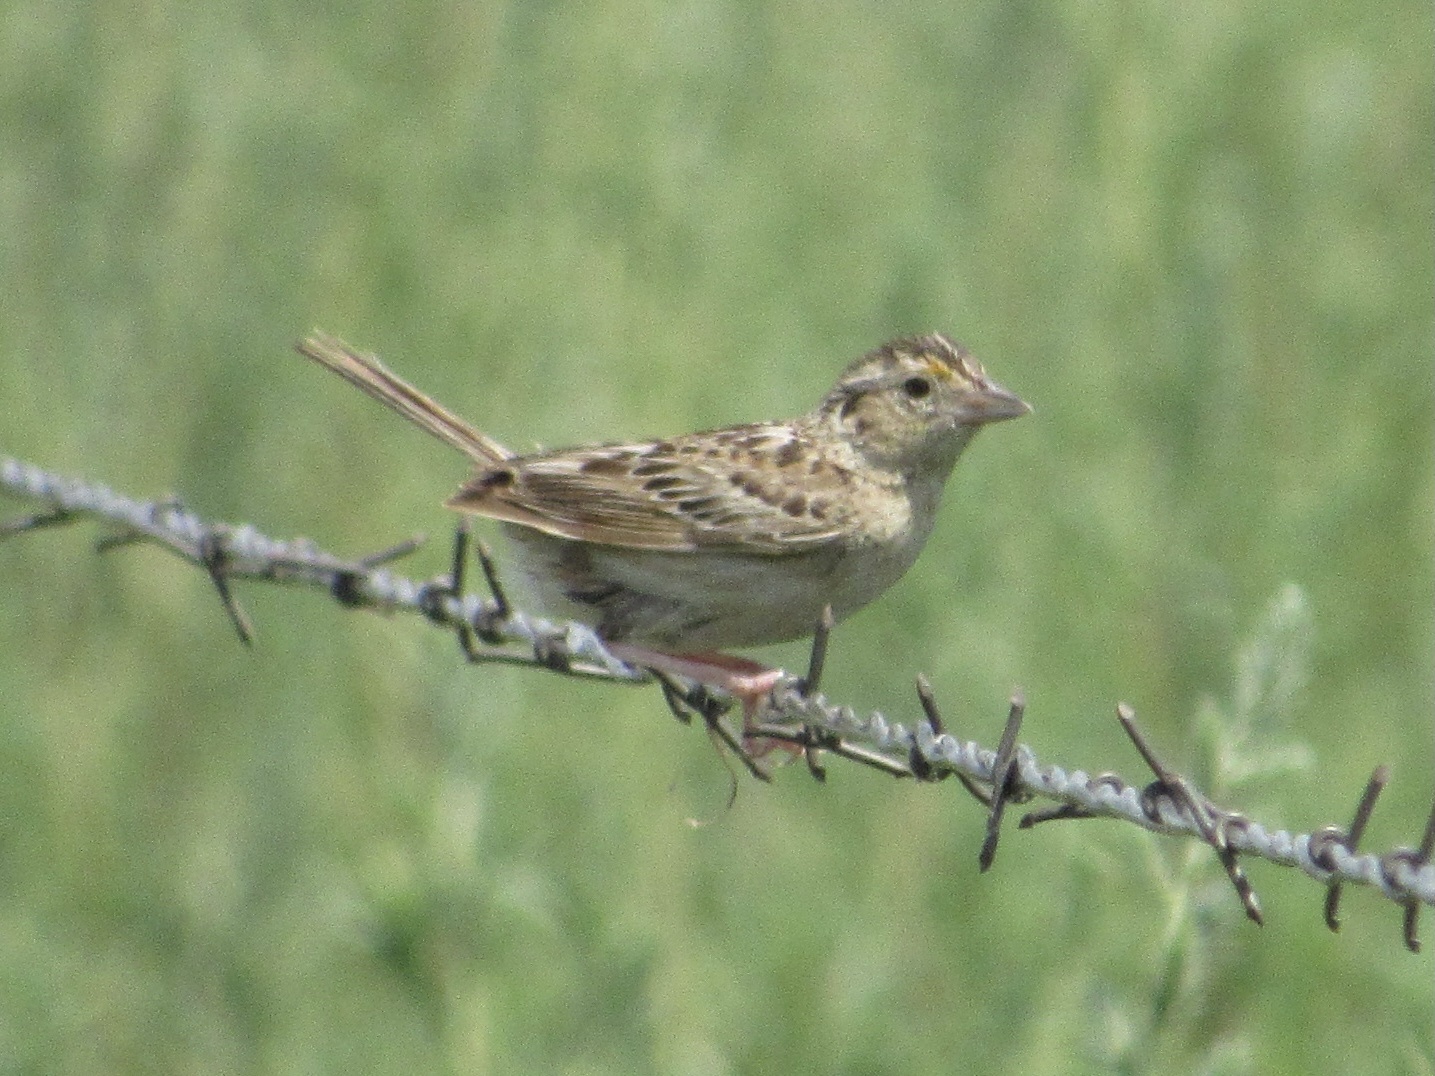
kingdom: Animalia
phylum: Chordata
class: Aves
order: Passeriformes
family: Passerellidae
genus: Ammodramus
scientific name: Ammodramus savannarum
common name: Grasshopper sparrow
